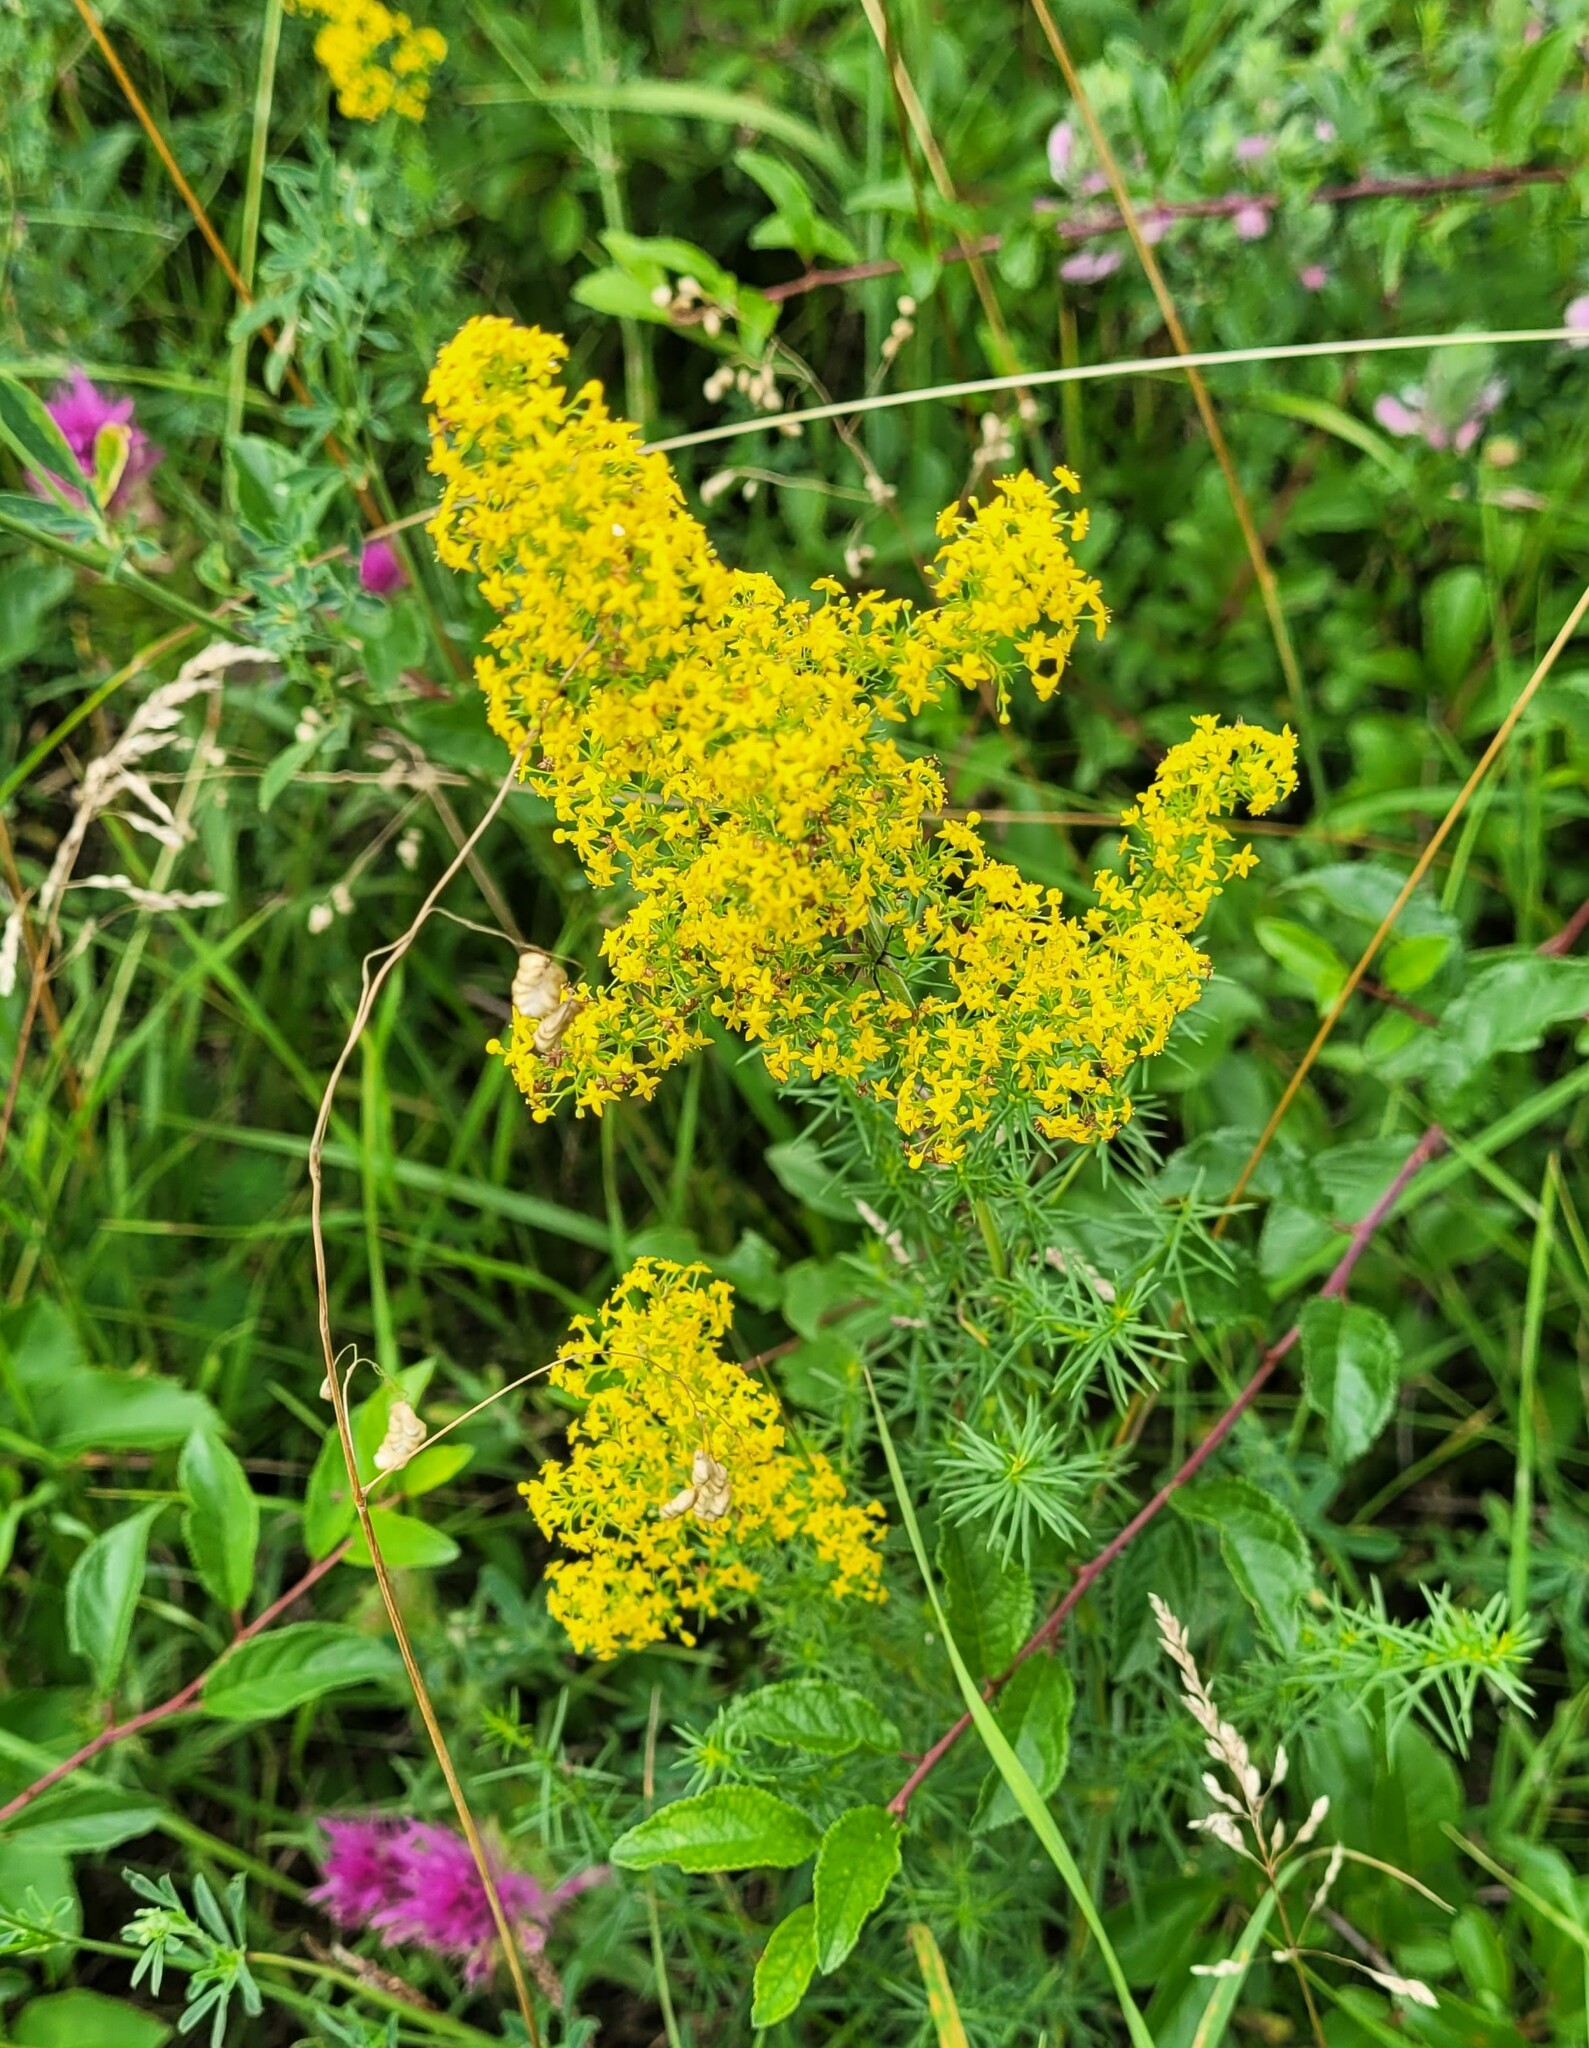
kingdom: Plantae
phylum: Tracheophyta
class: Magnoliopsida
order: Gentianales
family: Rubiaceae
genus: Galium
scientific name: Galium verum
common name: Lady's bedstraw
